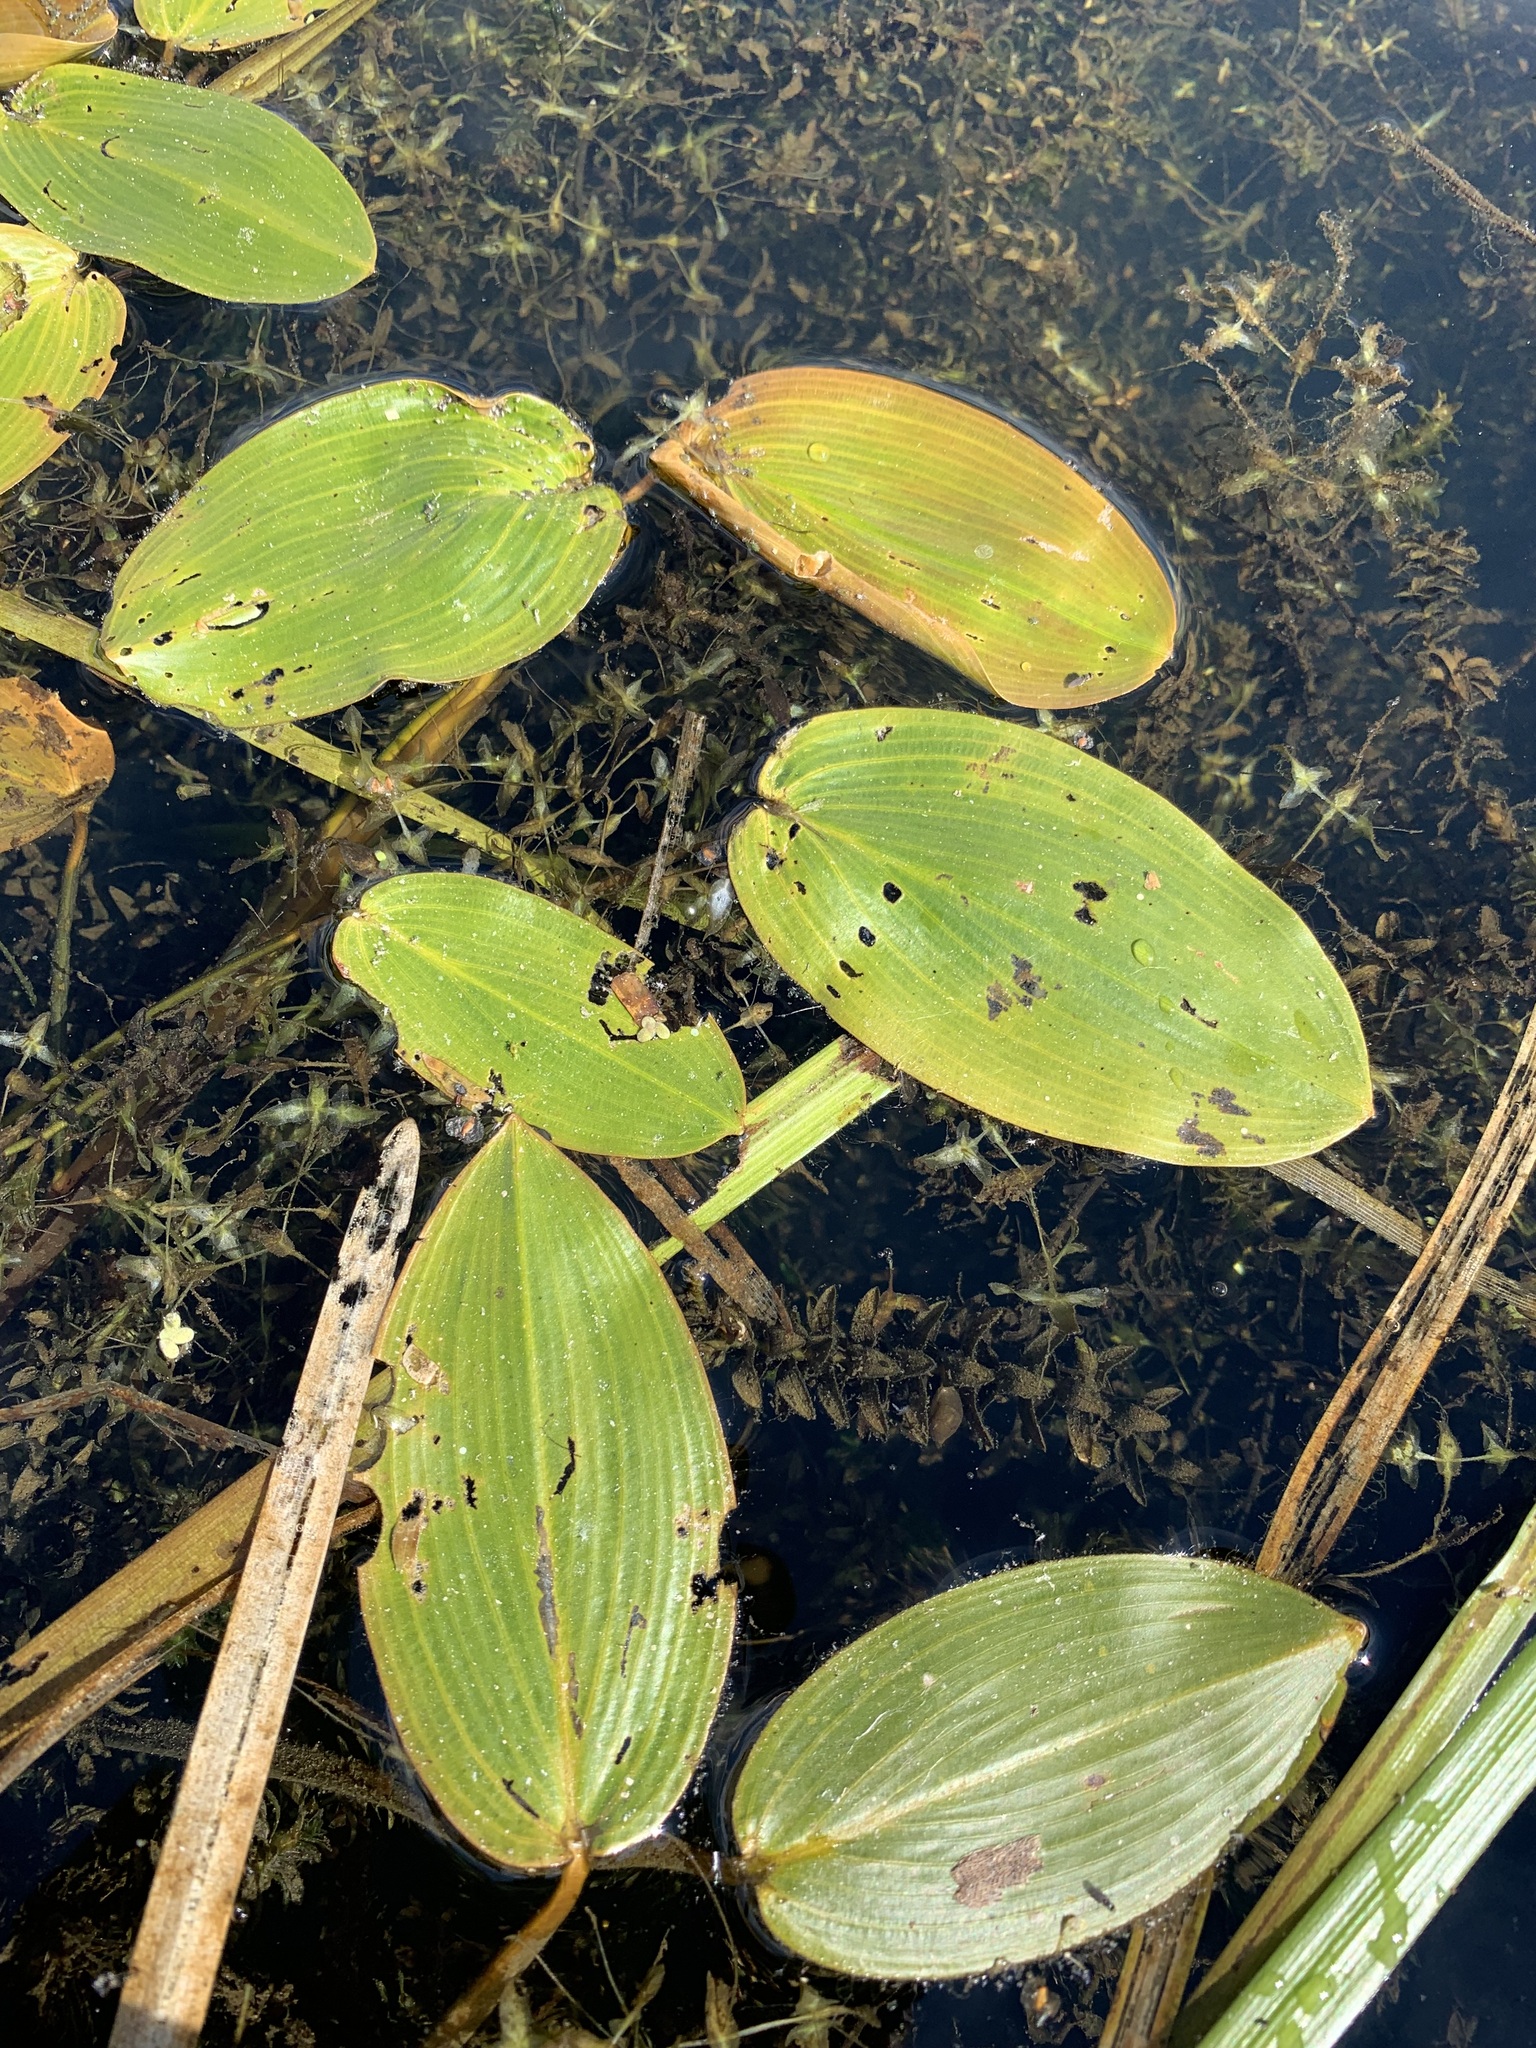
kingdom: Plantae
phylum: Tracheophyta
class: Liliopsida
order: Alismatales
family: Potamogetonaceae
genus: Potamogeton
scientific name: Potamogeton natans
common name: Broad-leaved pondweed
